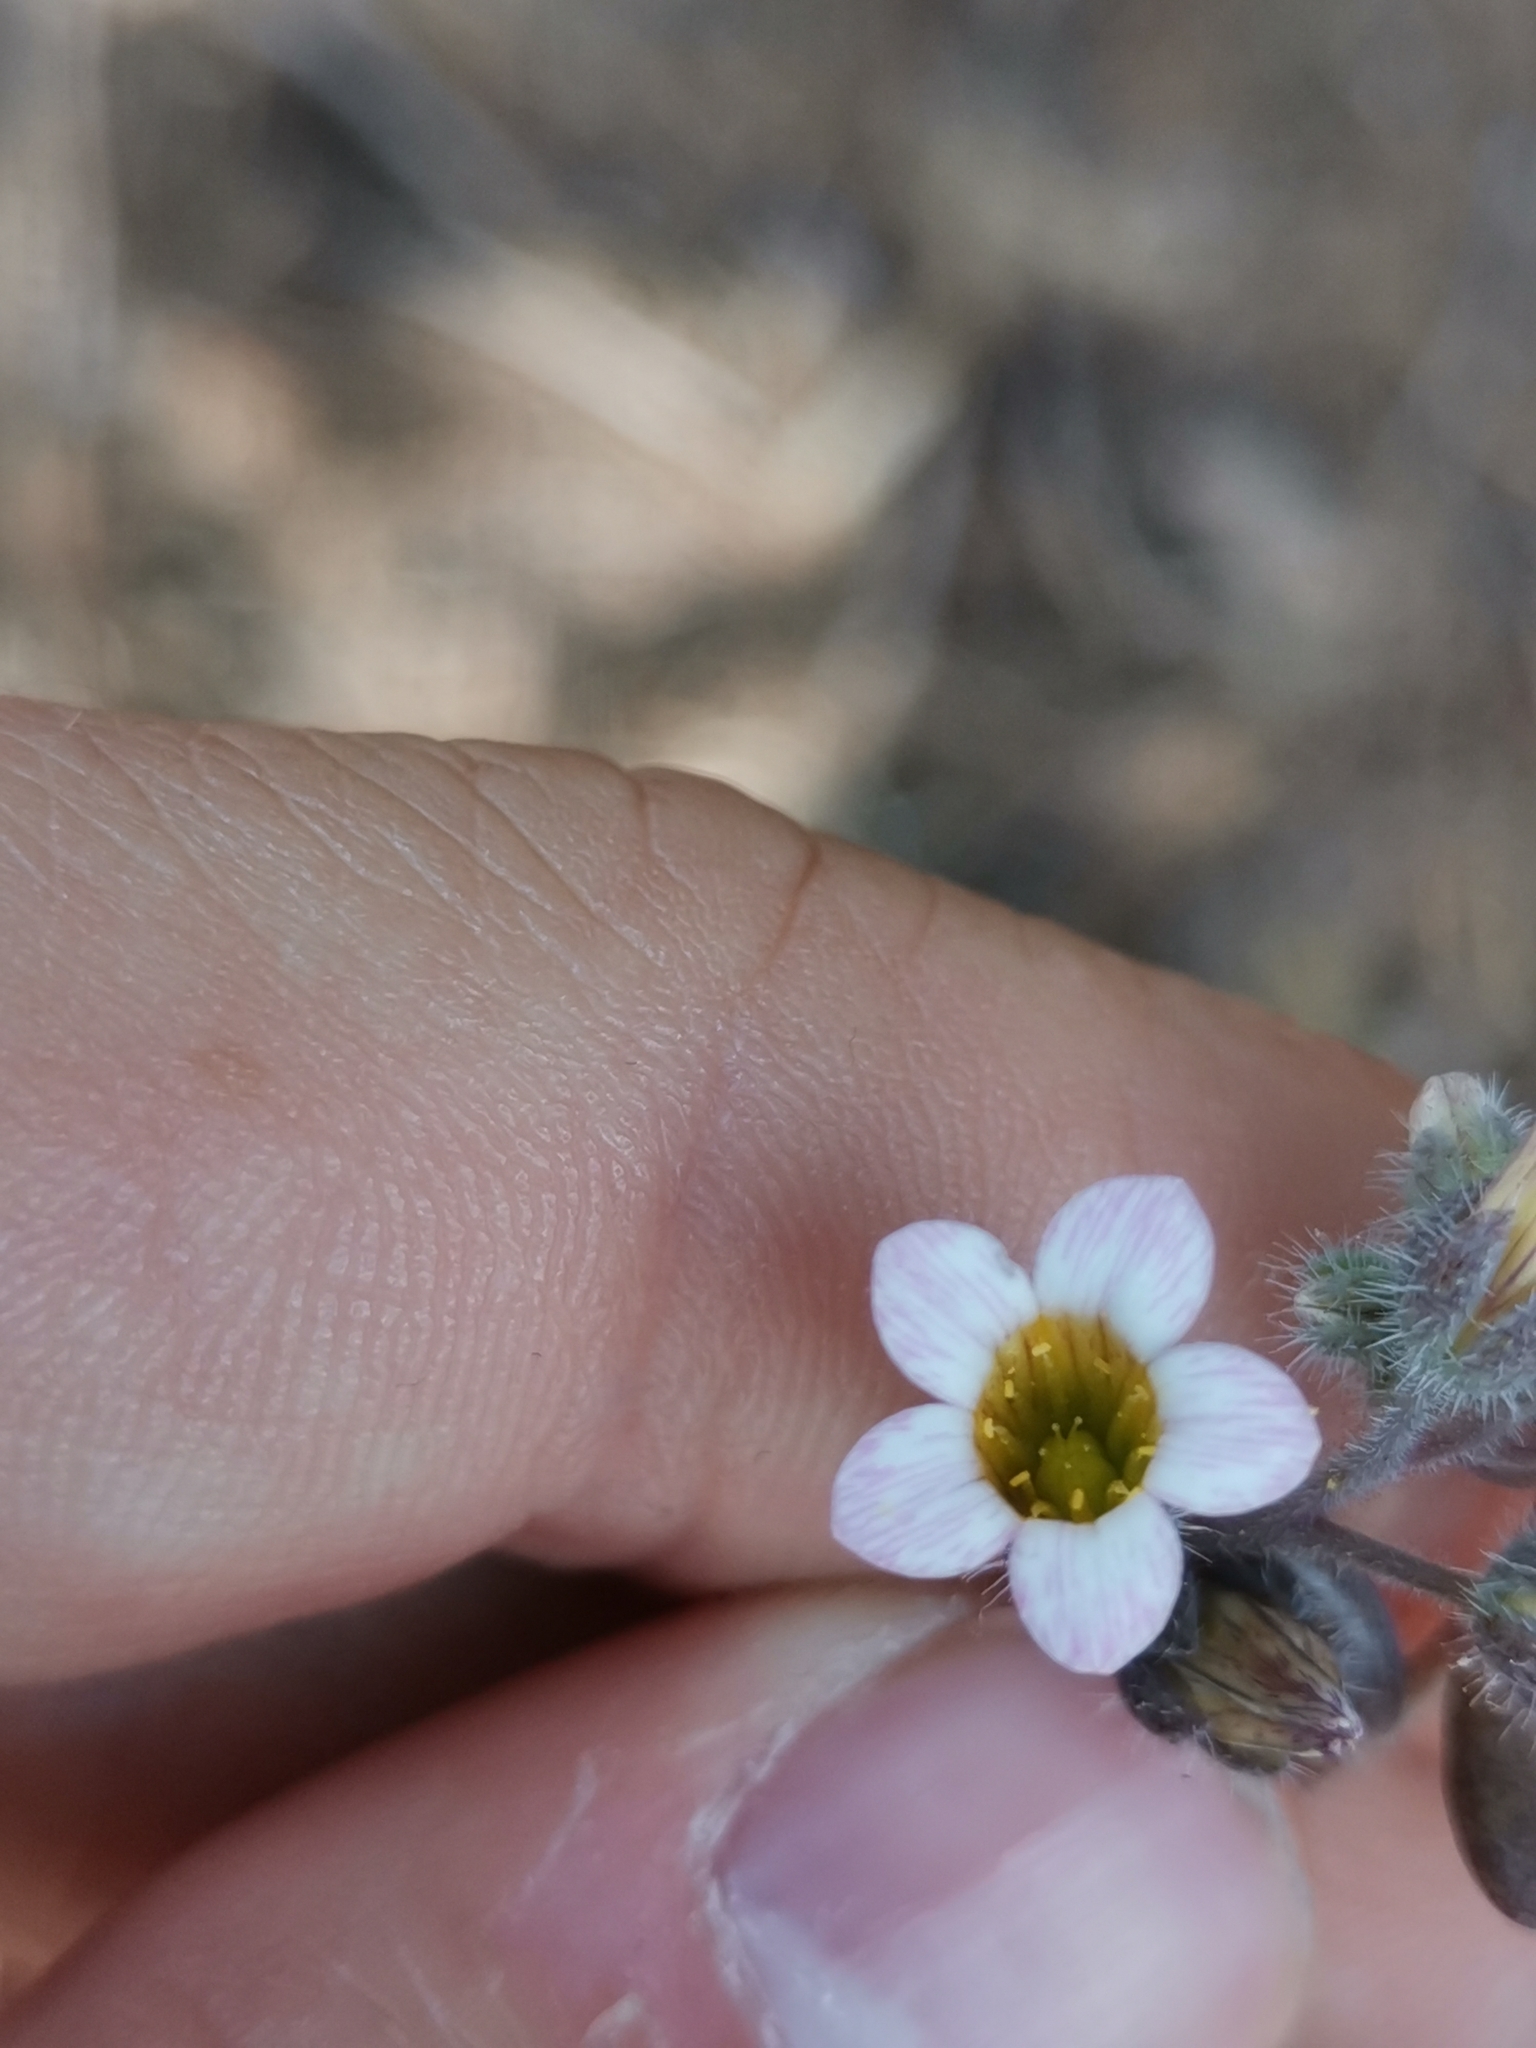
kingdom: Plantae
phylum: Tracheophyta
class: Magnoliopsida
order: Saxifragales
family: Crassulaceae
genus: Sedum
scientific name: Sedum mucizonia
